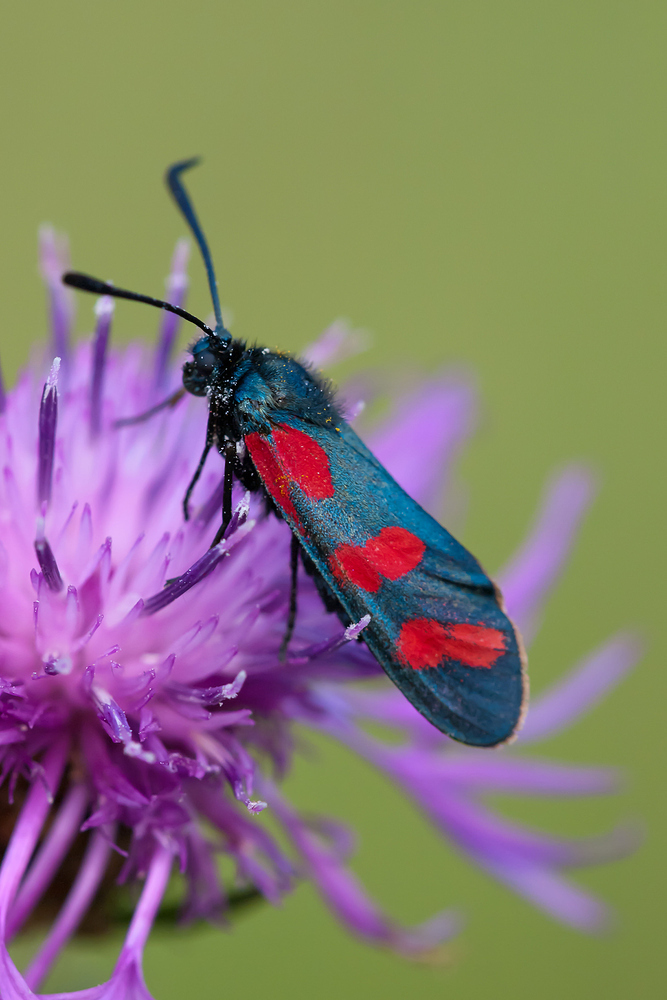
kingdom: Animalia
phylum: Arthropoda
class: Insecta
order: Lepidoptera
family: Zygaenidae
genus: Zygaena
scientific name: Zygaena filipendulae
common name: Six-spot burnet
